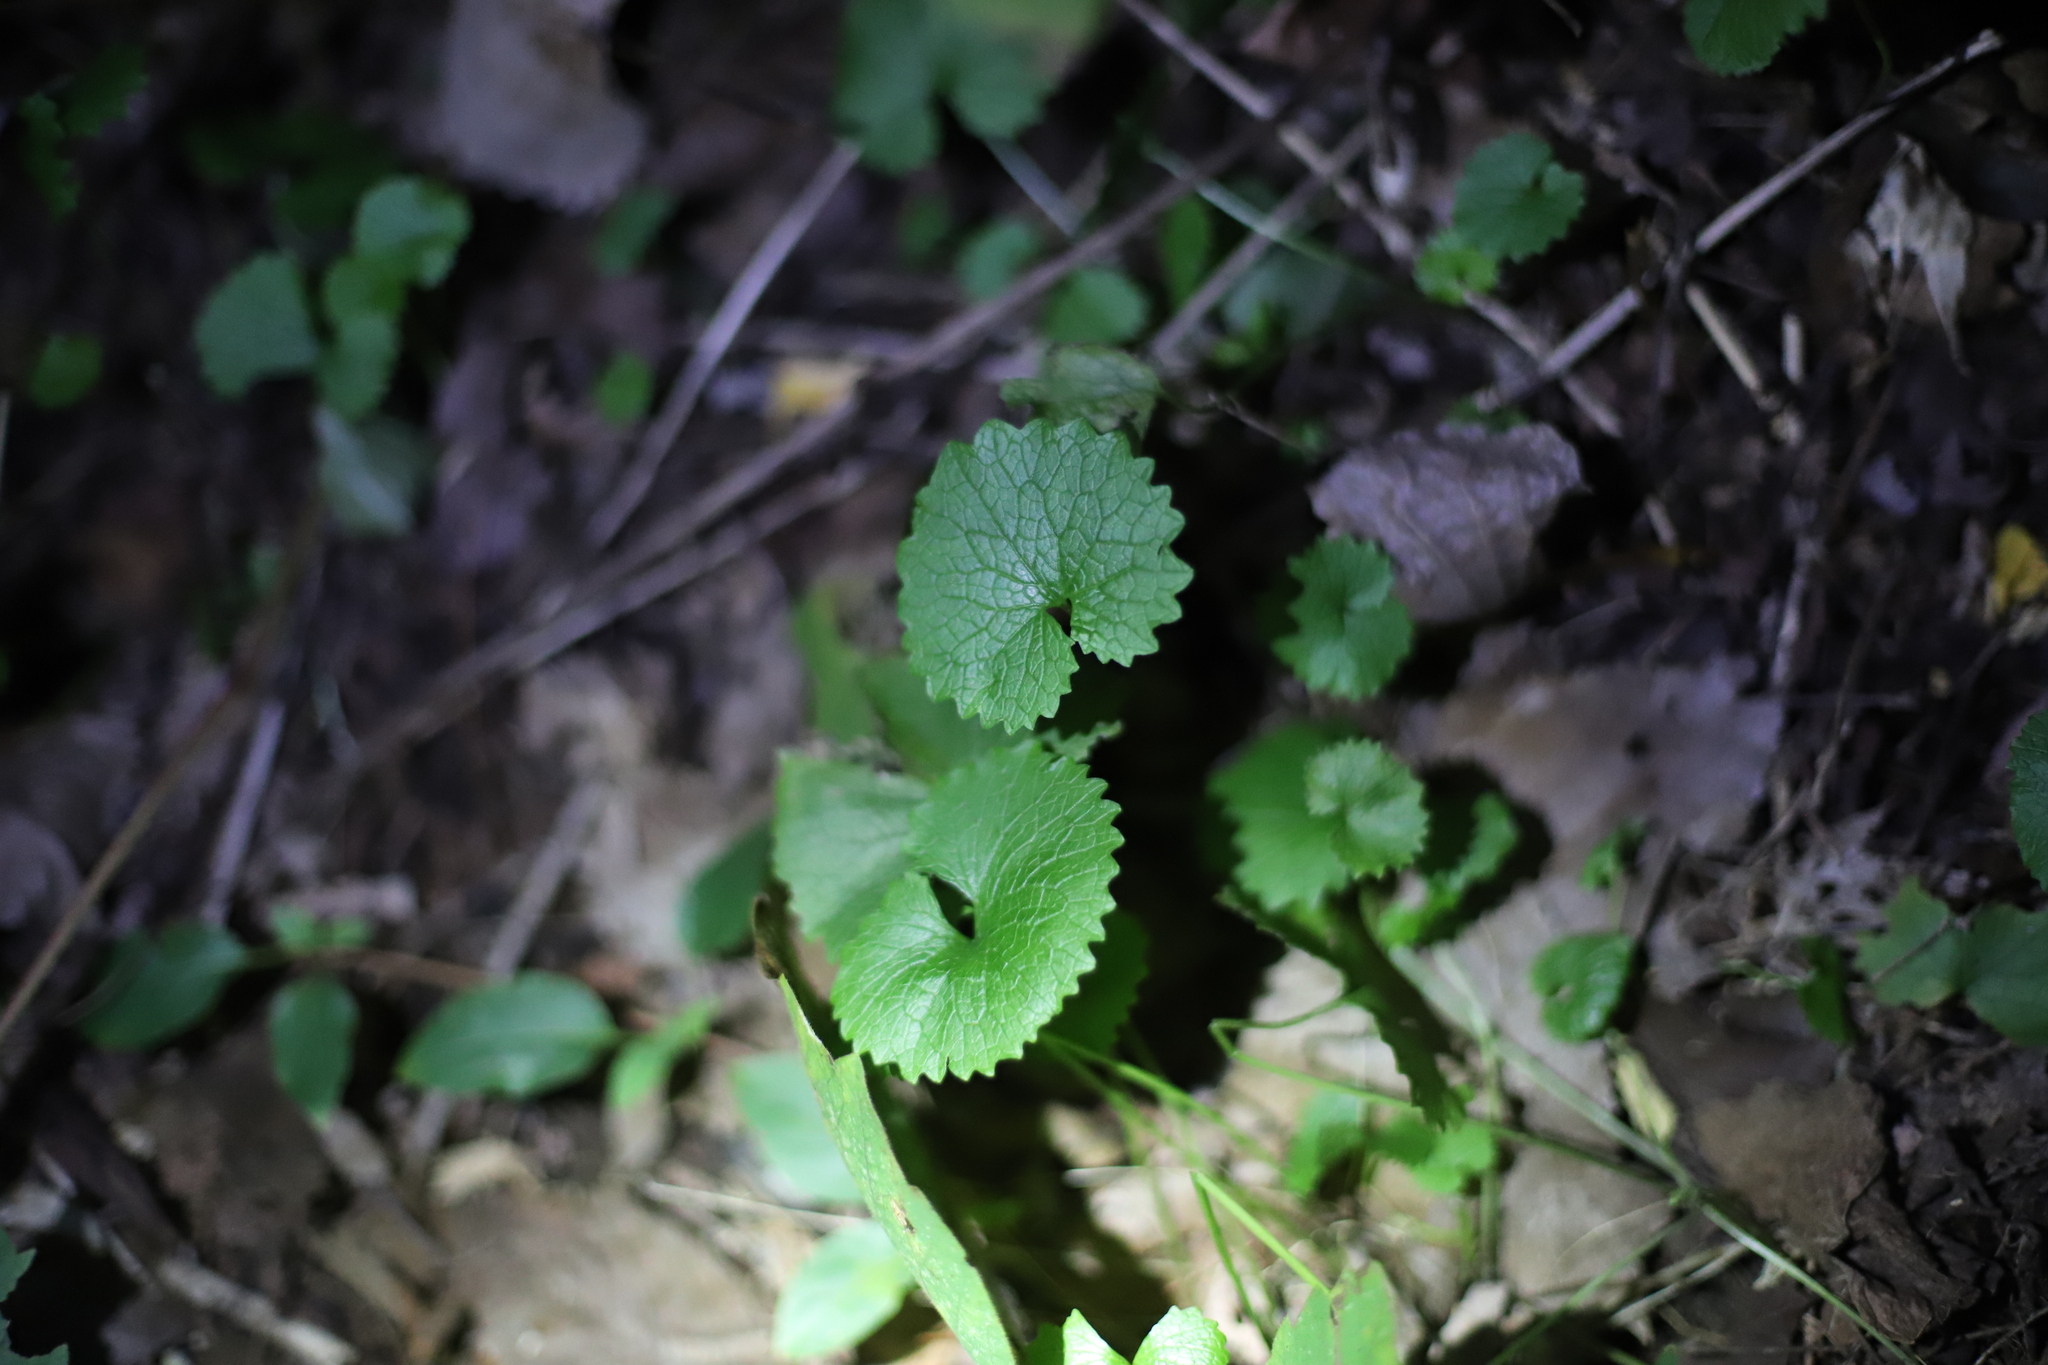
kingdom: Plantae
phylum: Tracheophyta
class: Magnoliopsida
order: Brassicales
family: Brassicaceae
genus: Alliaria
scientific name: Alliaria petiolata
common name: Garlic mustard
